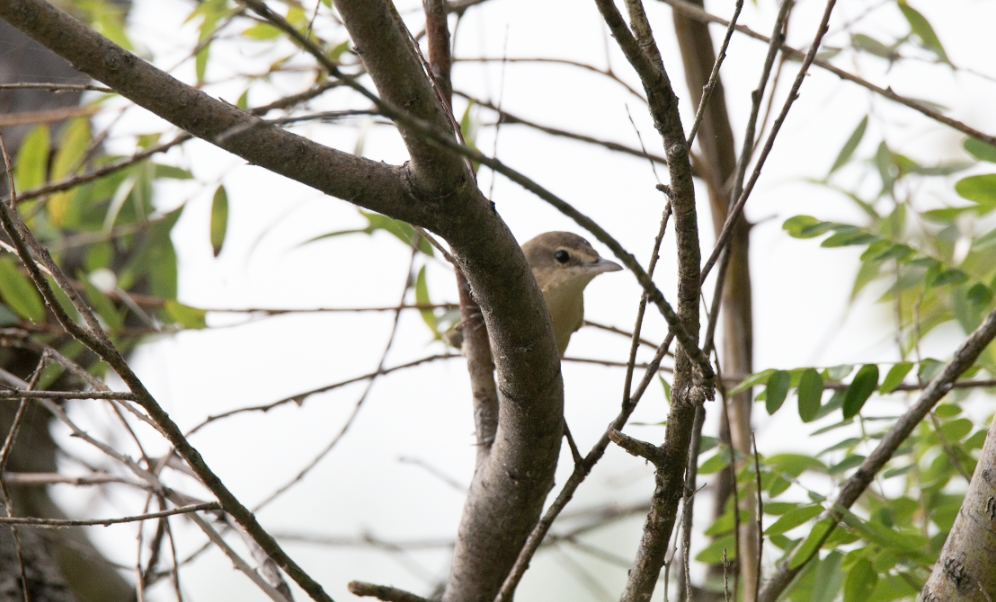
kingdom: Animalia
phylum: Chordata
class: Aves
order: Passeriformes
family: Acrocephalidae
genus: Acrocephalus
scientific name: Acrocephalus arundinaceus
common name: Great reed warbler
